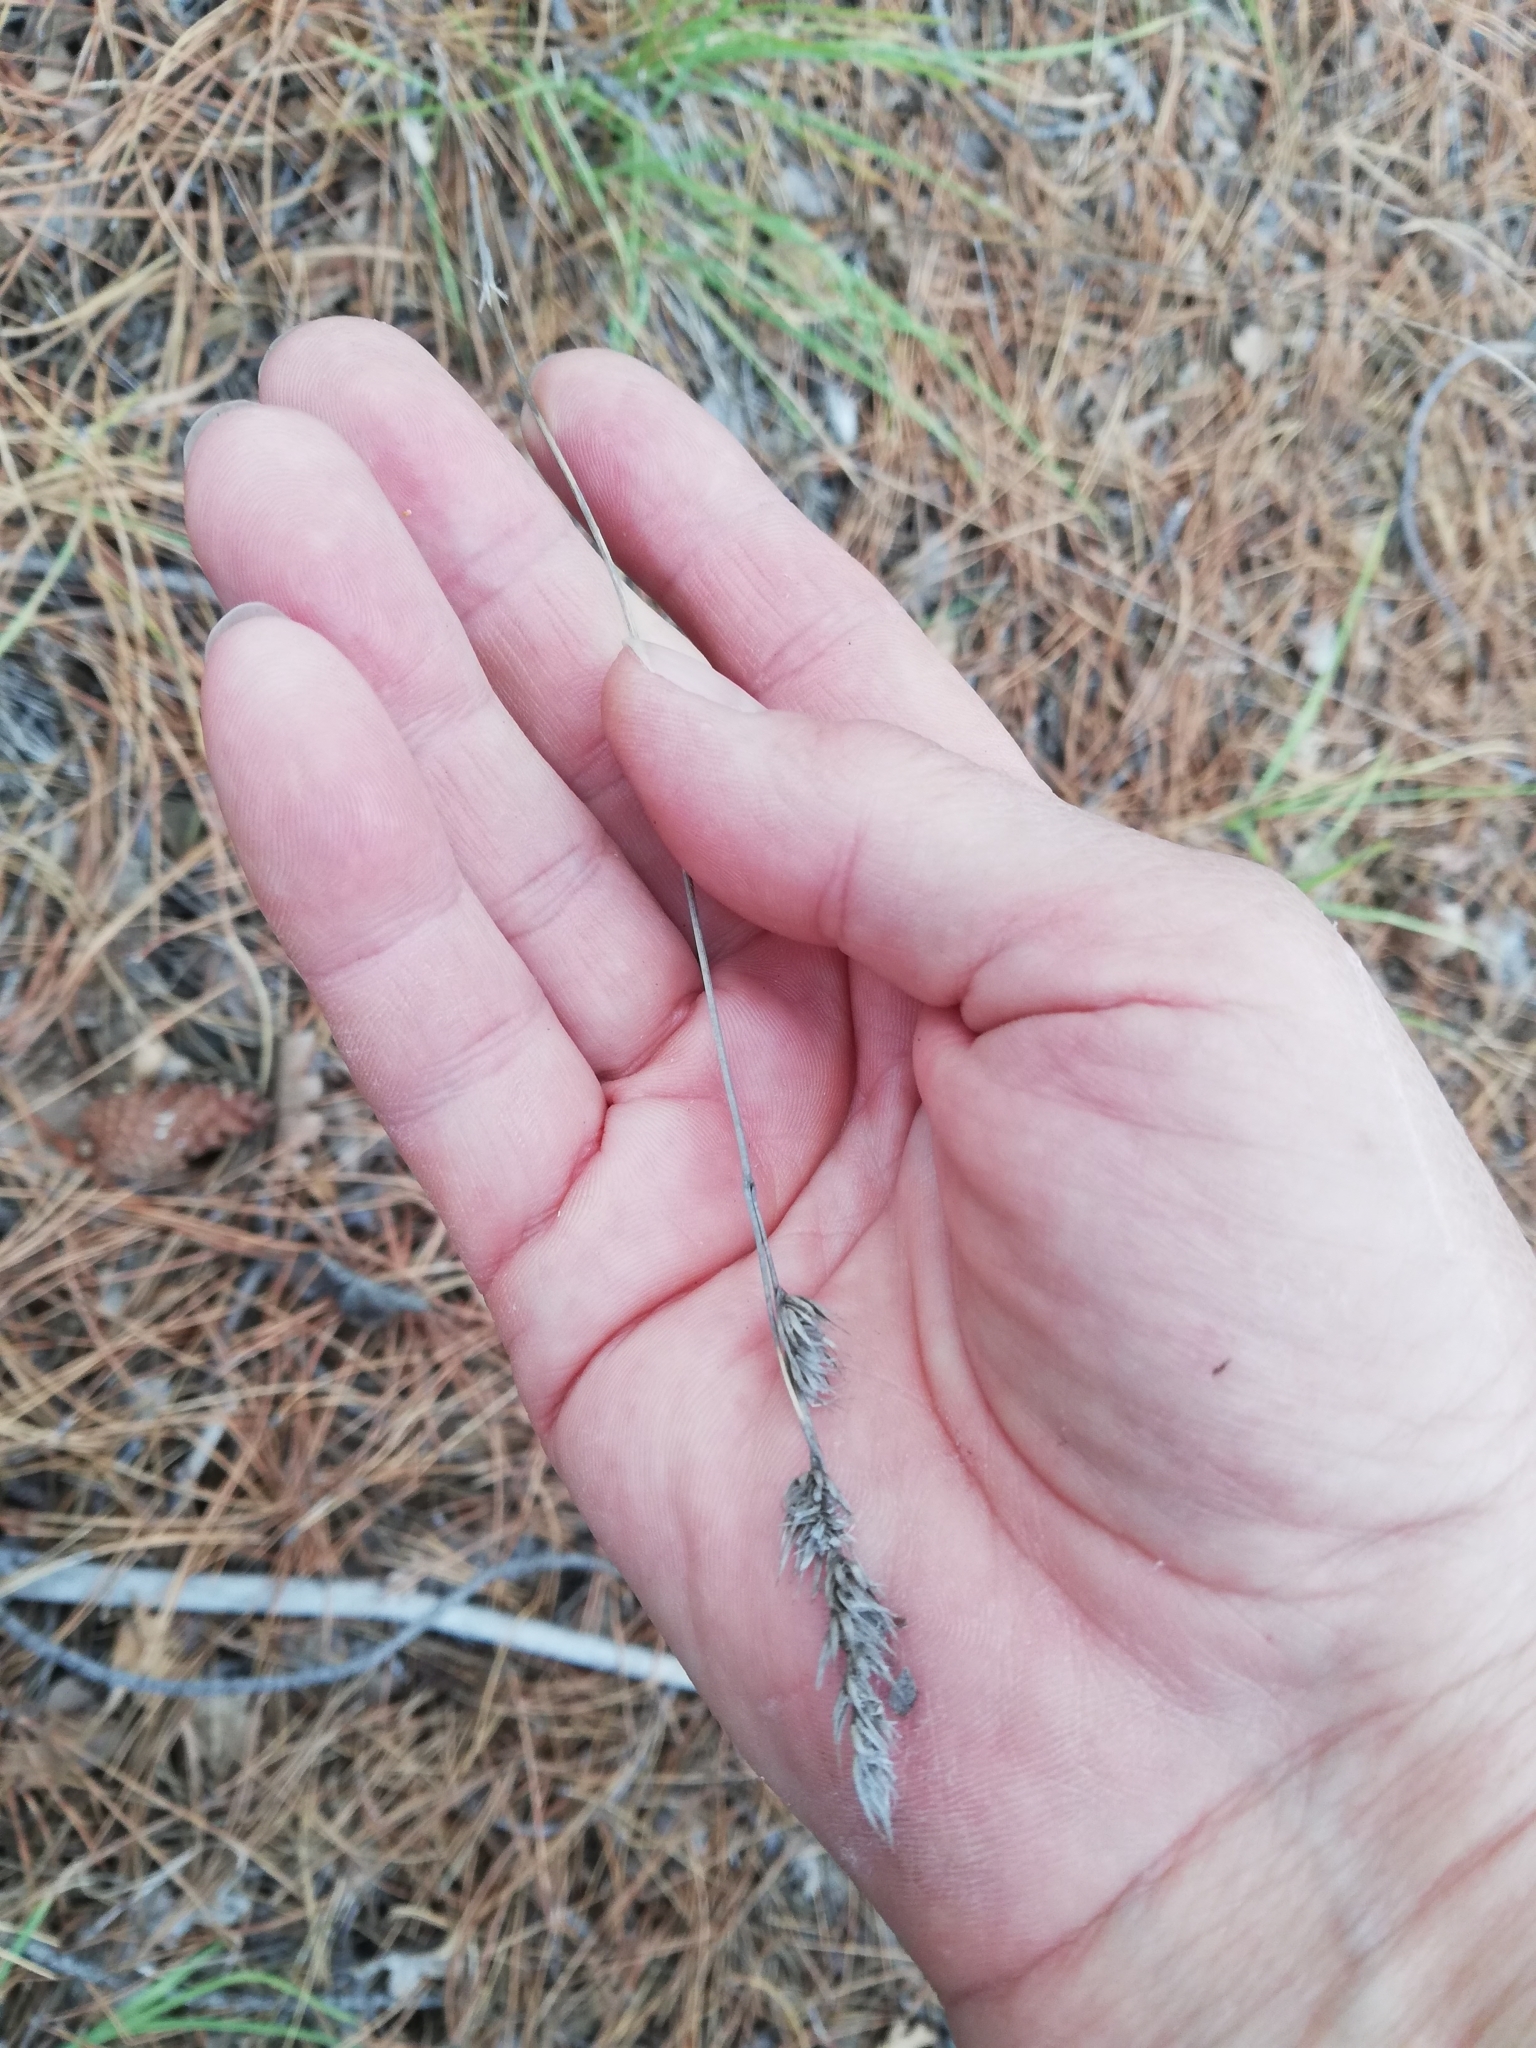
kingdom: Plantae
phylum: Tracheophyta
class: Liliopsida
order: Poales
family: Poaceae
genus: Dactylis
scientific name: Dactylis glomerata
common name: Orchardgrass
